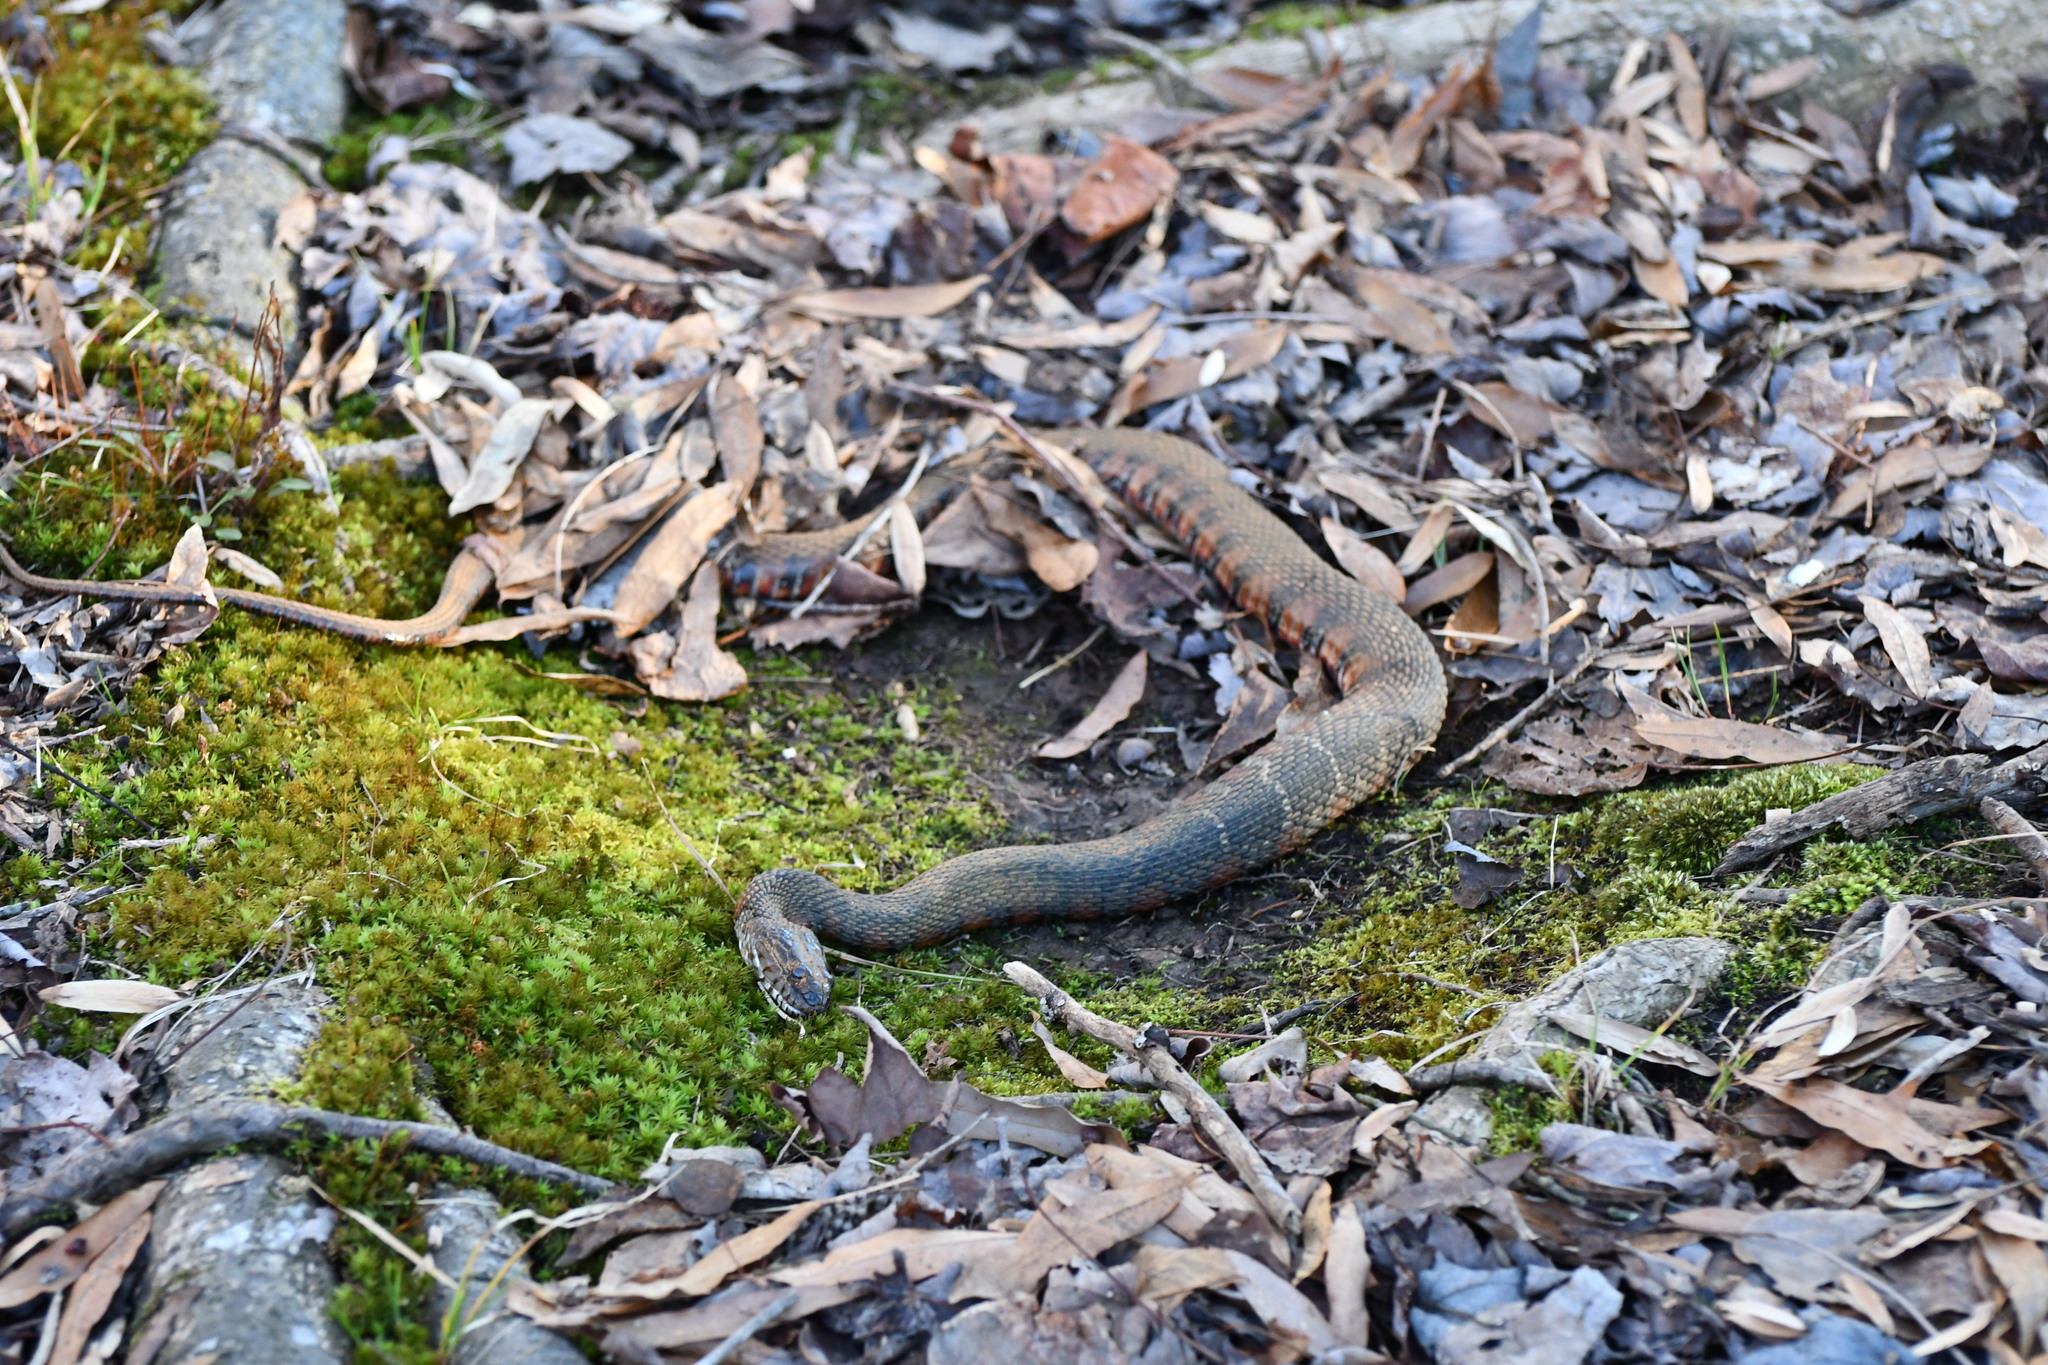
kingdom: Animalia
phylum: Chordata
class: Squamata
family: Colubridae
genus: Nerodia
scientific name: Nerodia sipedon
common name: Northern water snake
